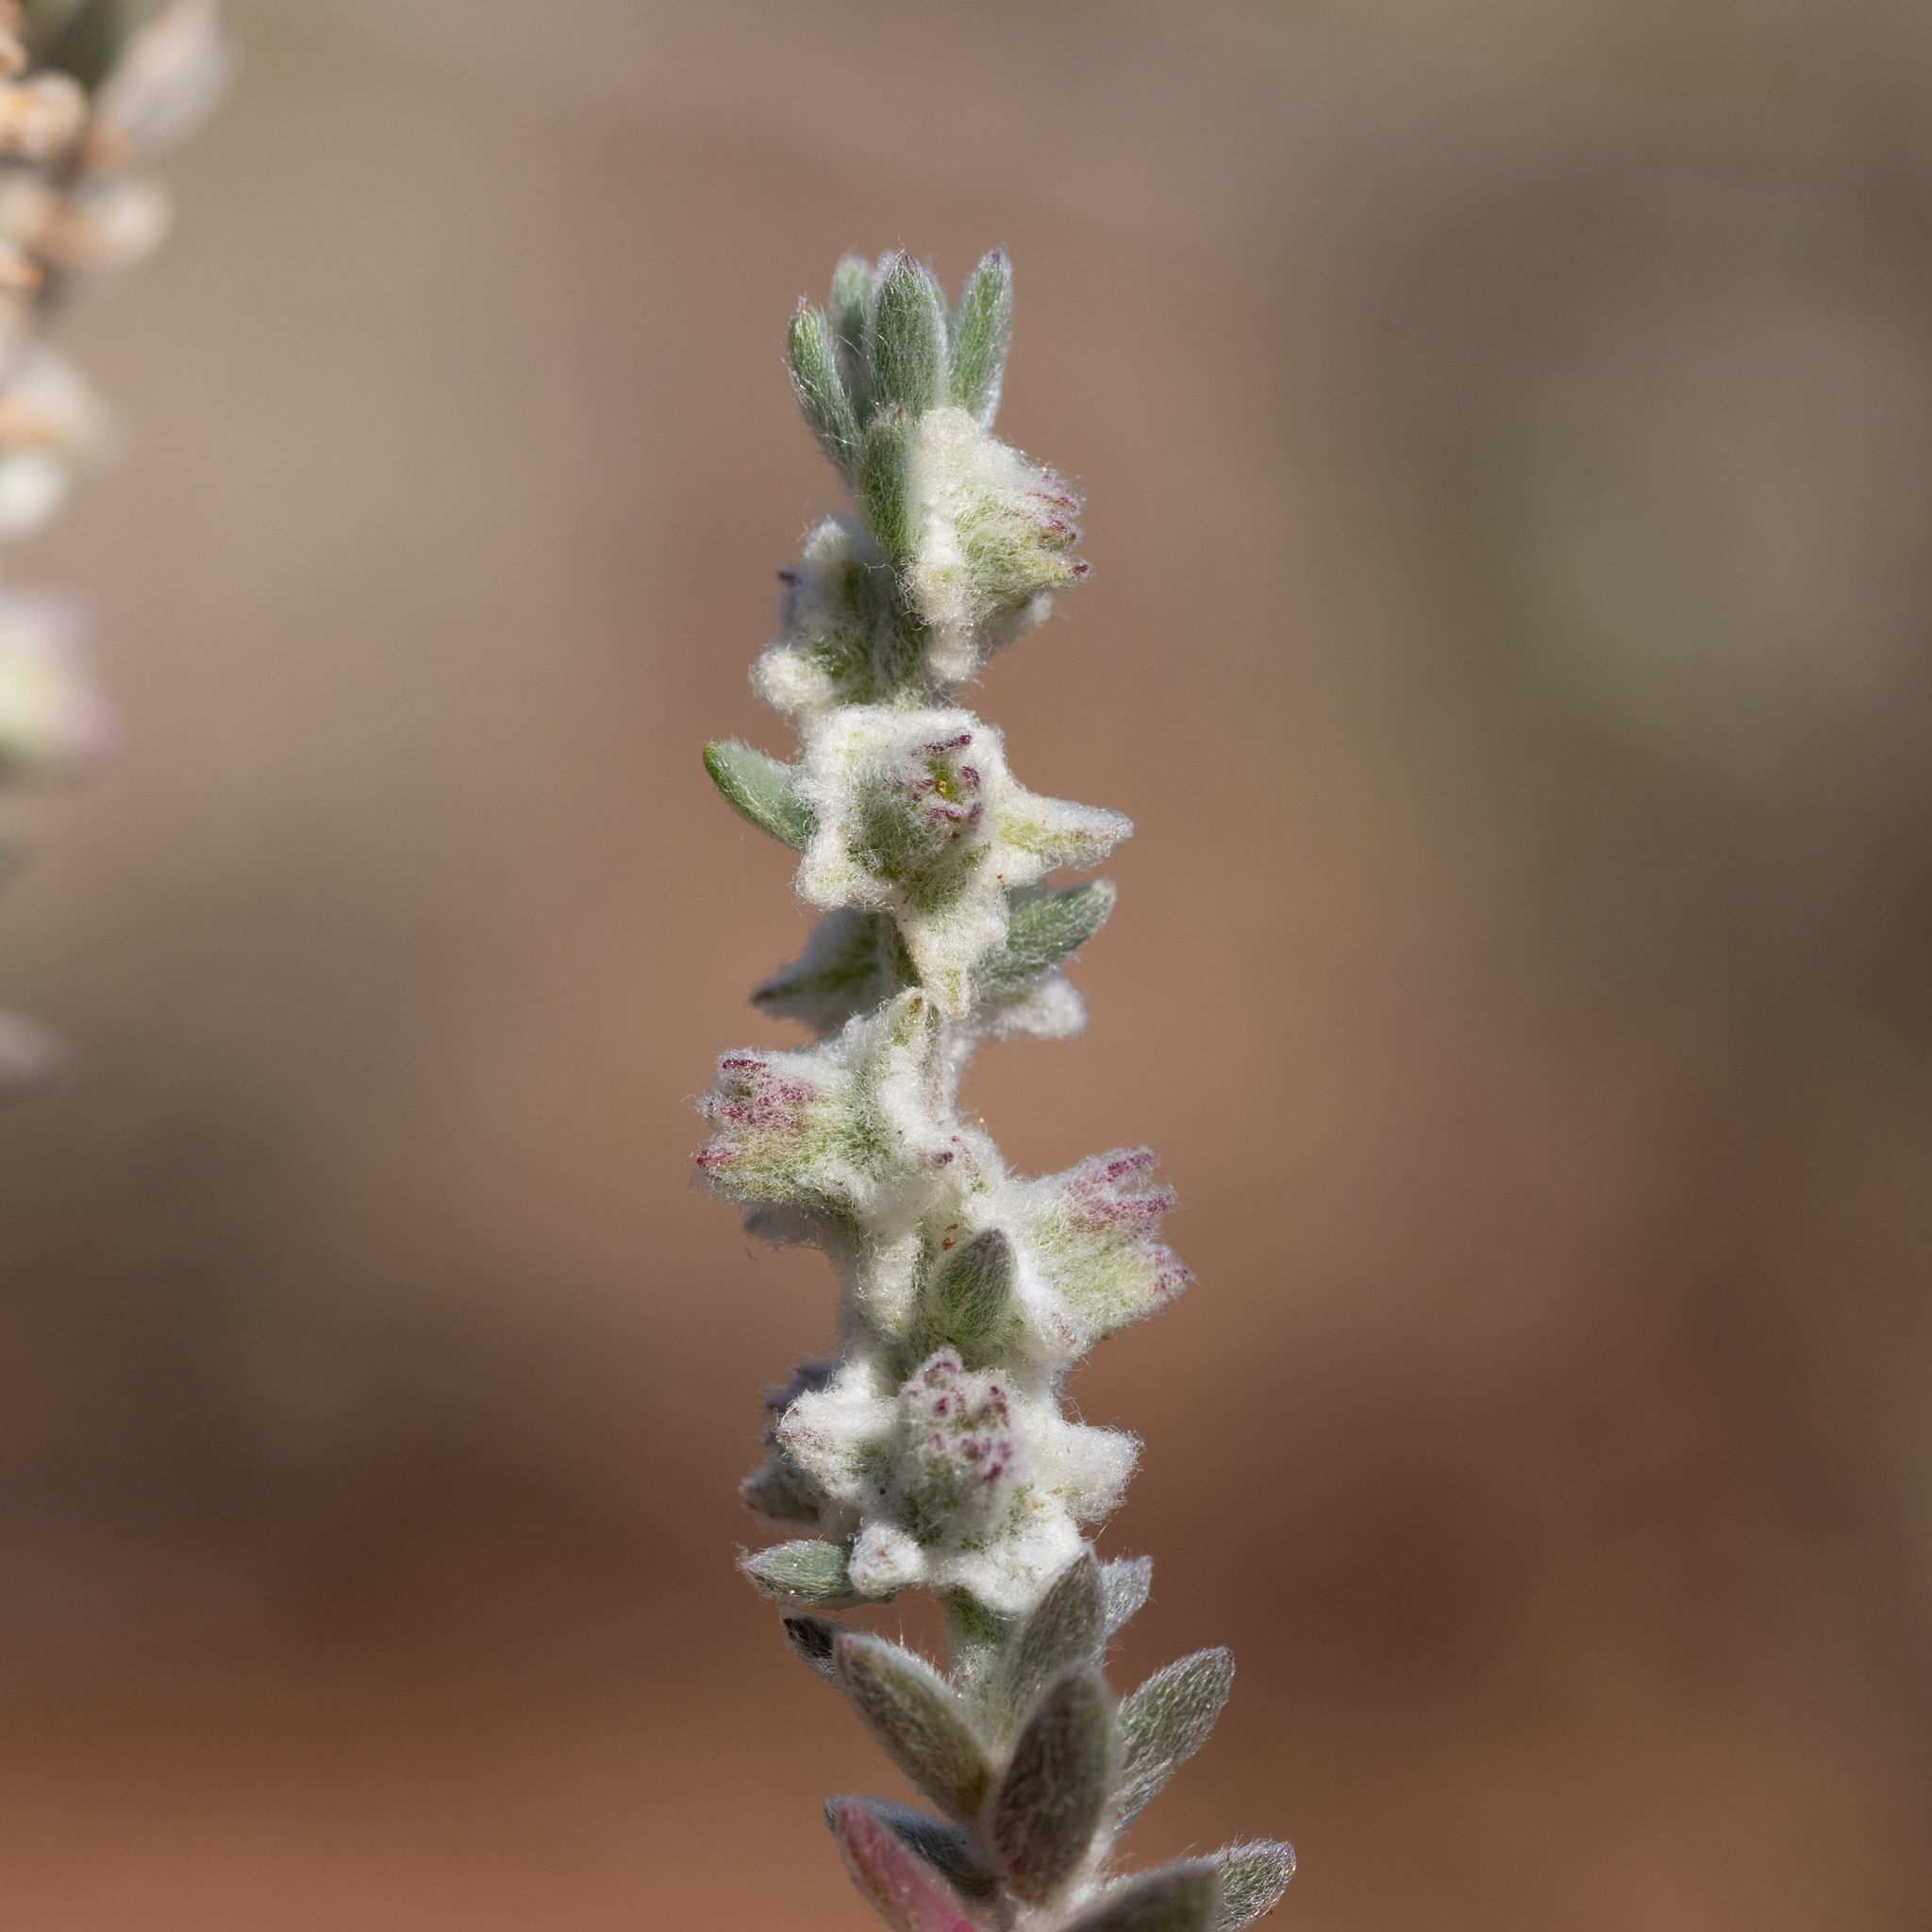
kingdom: Plantae
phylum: Tracheophyta
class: Magnoliopsida
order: Caryophyllales
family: Amaranthaceae
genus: Maireana
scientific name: Maireana sclerolaenoides
